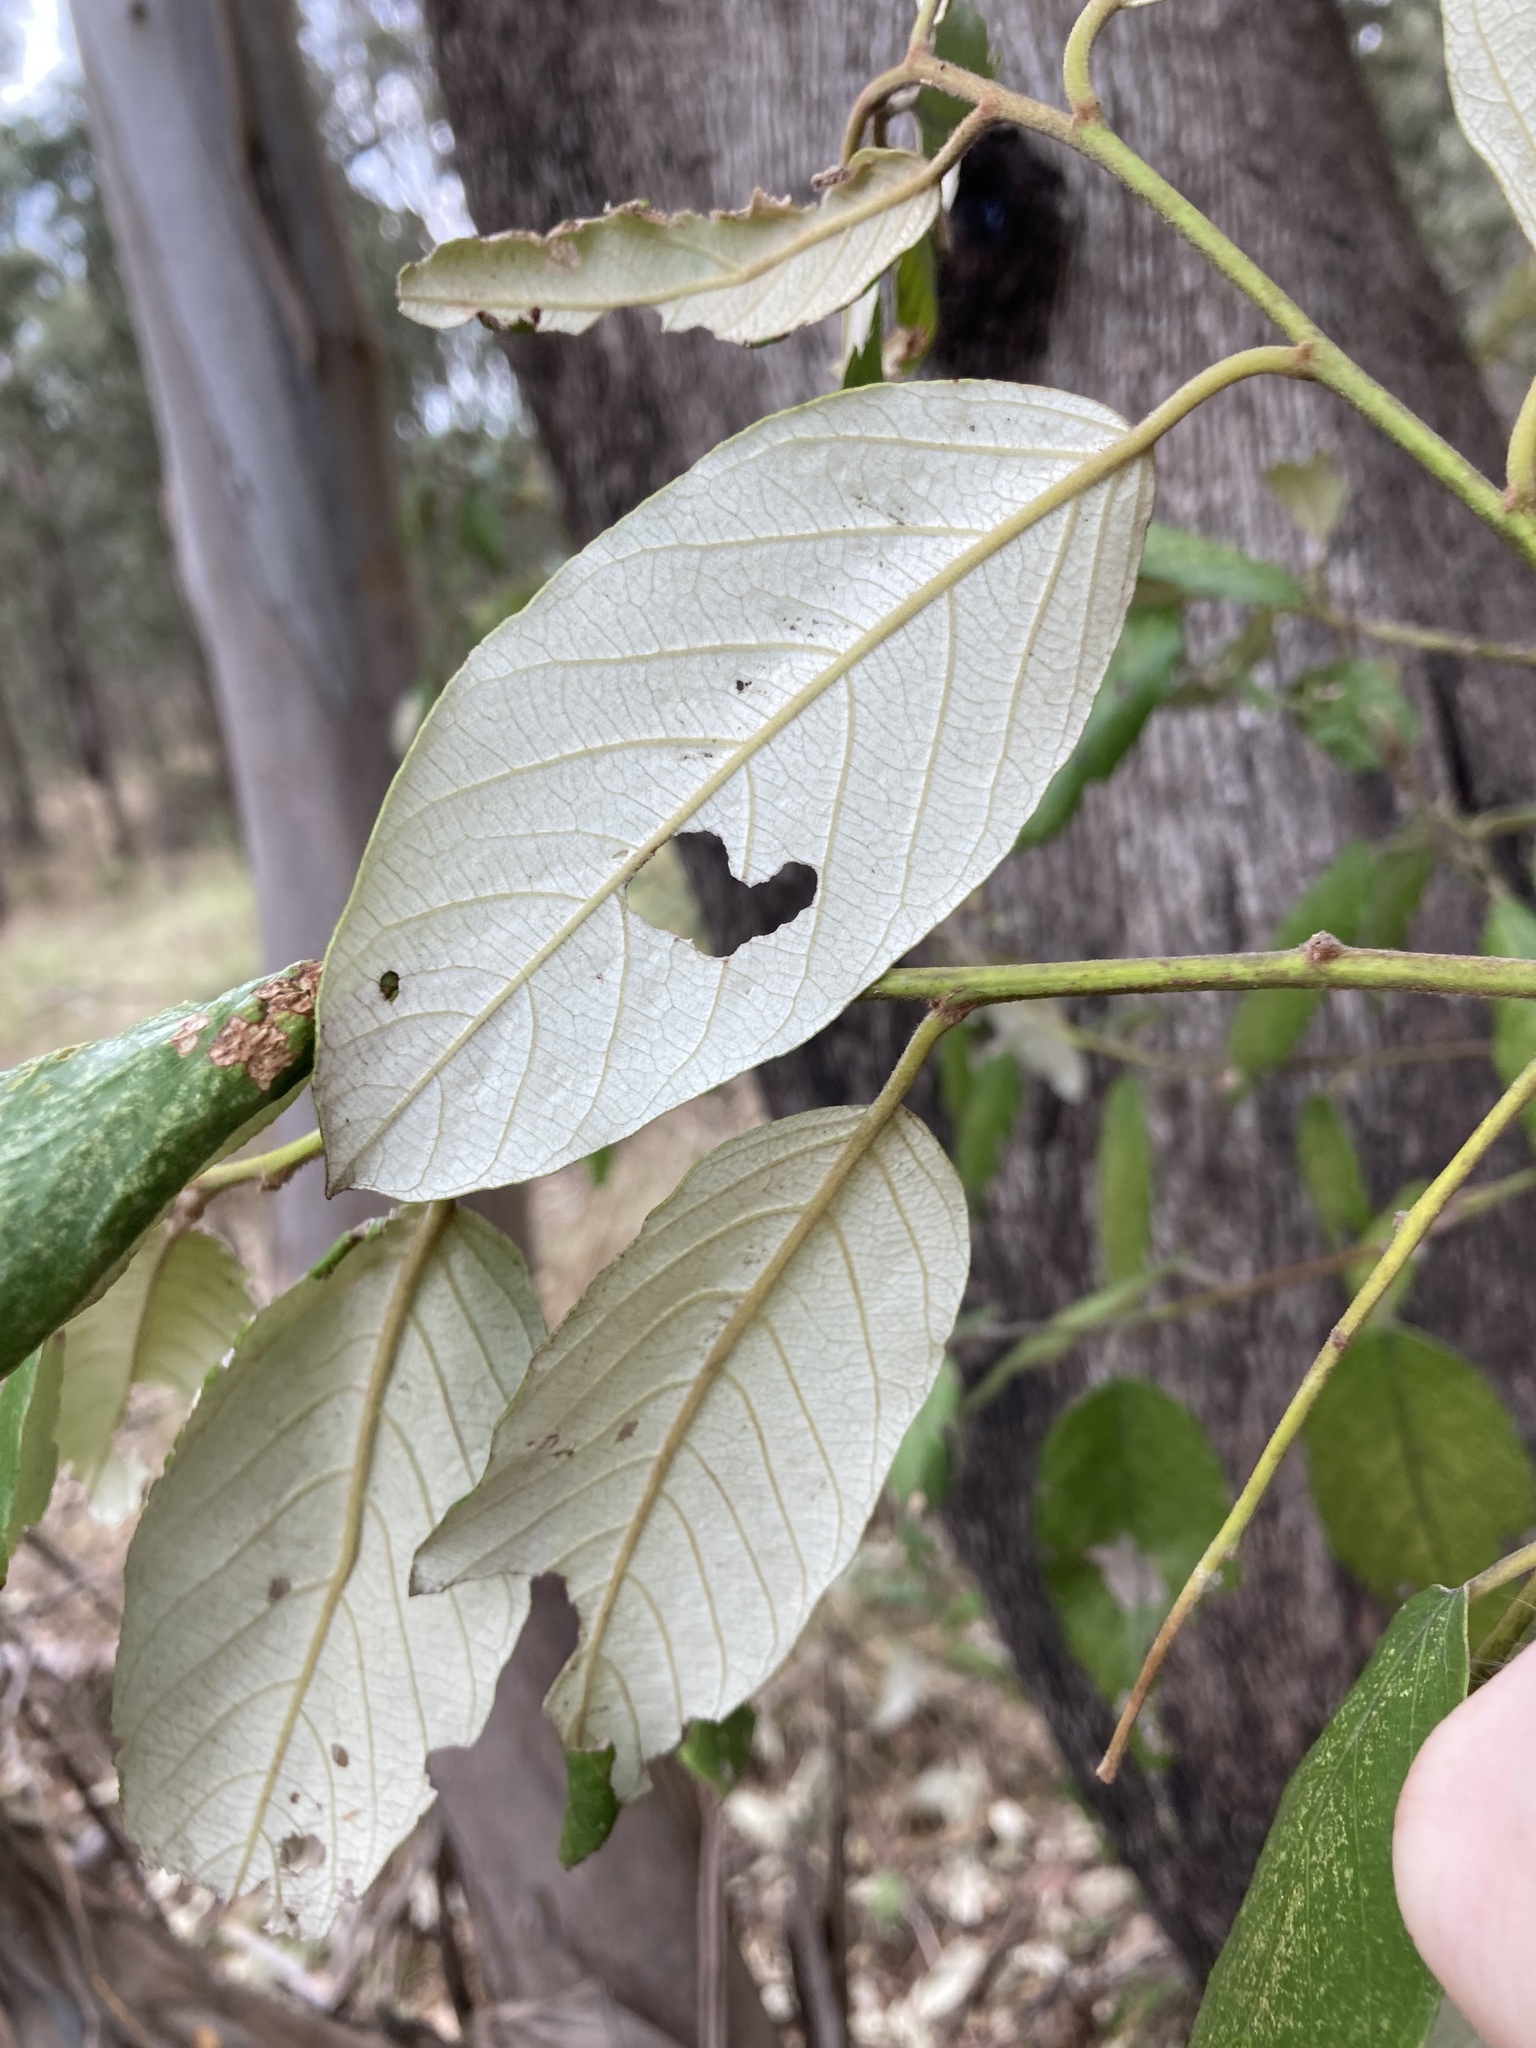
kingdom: Plantae
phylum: Tracheophyta
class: Magnoliopsida
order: Rosales
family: Rhamnaceae
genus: Alphitonia
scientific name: Alphitonia excelsa
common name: Red ash
